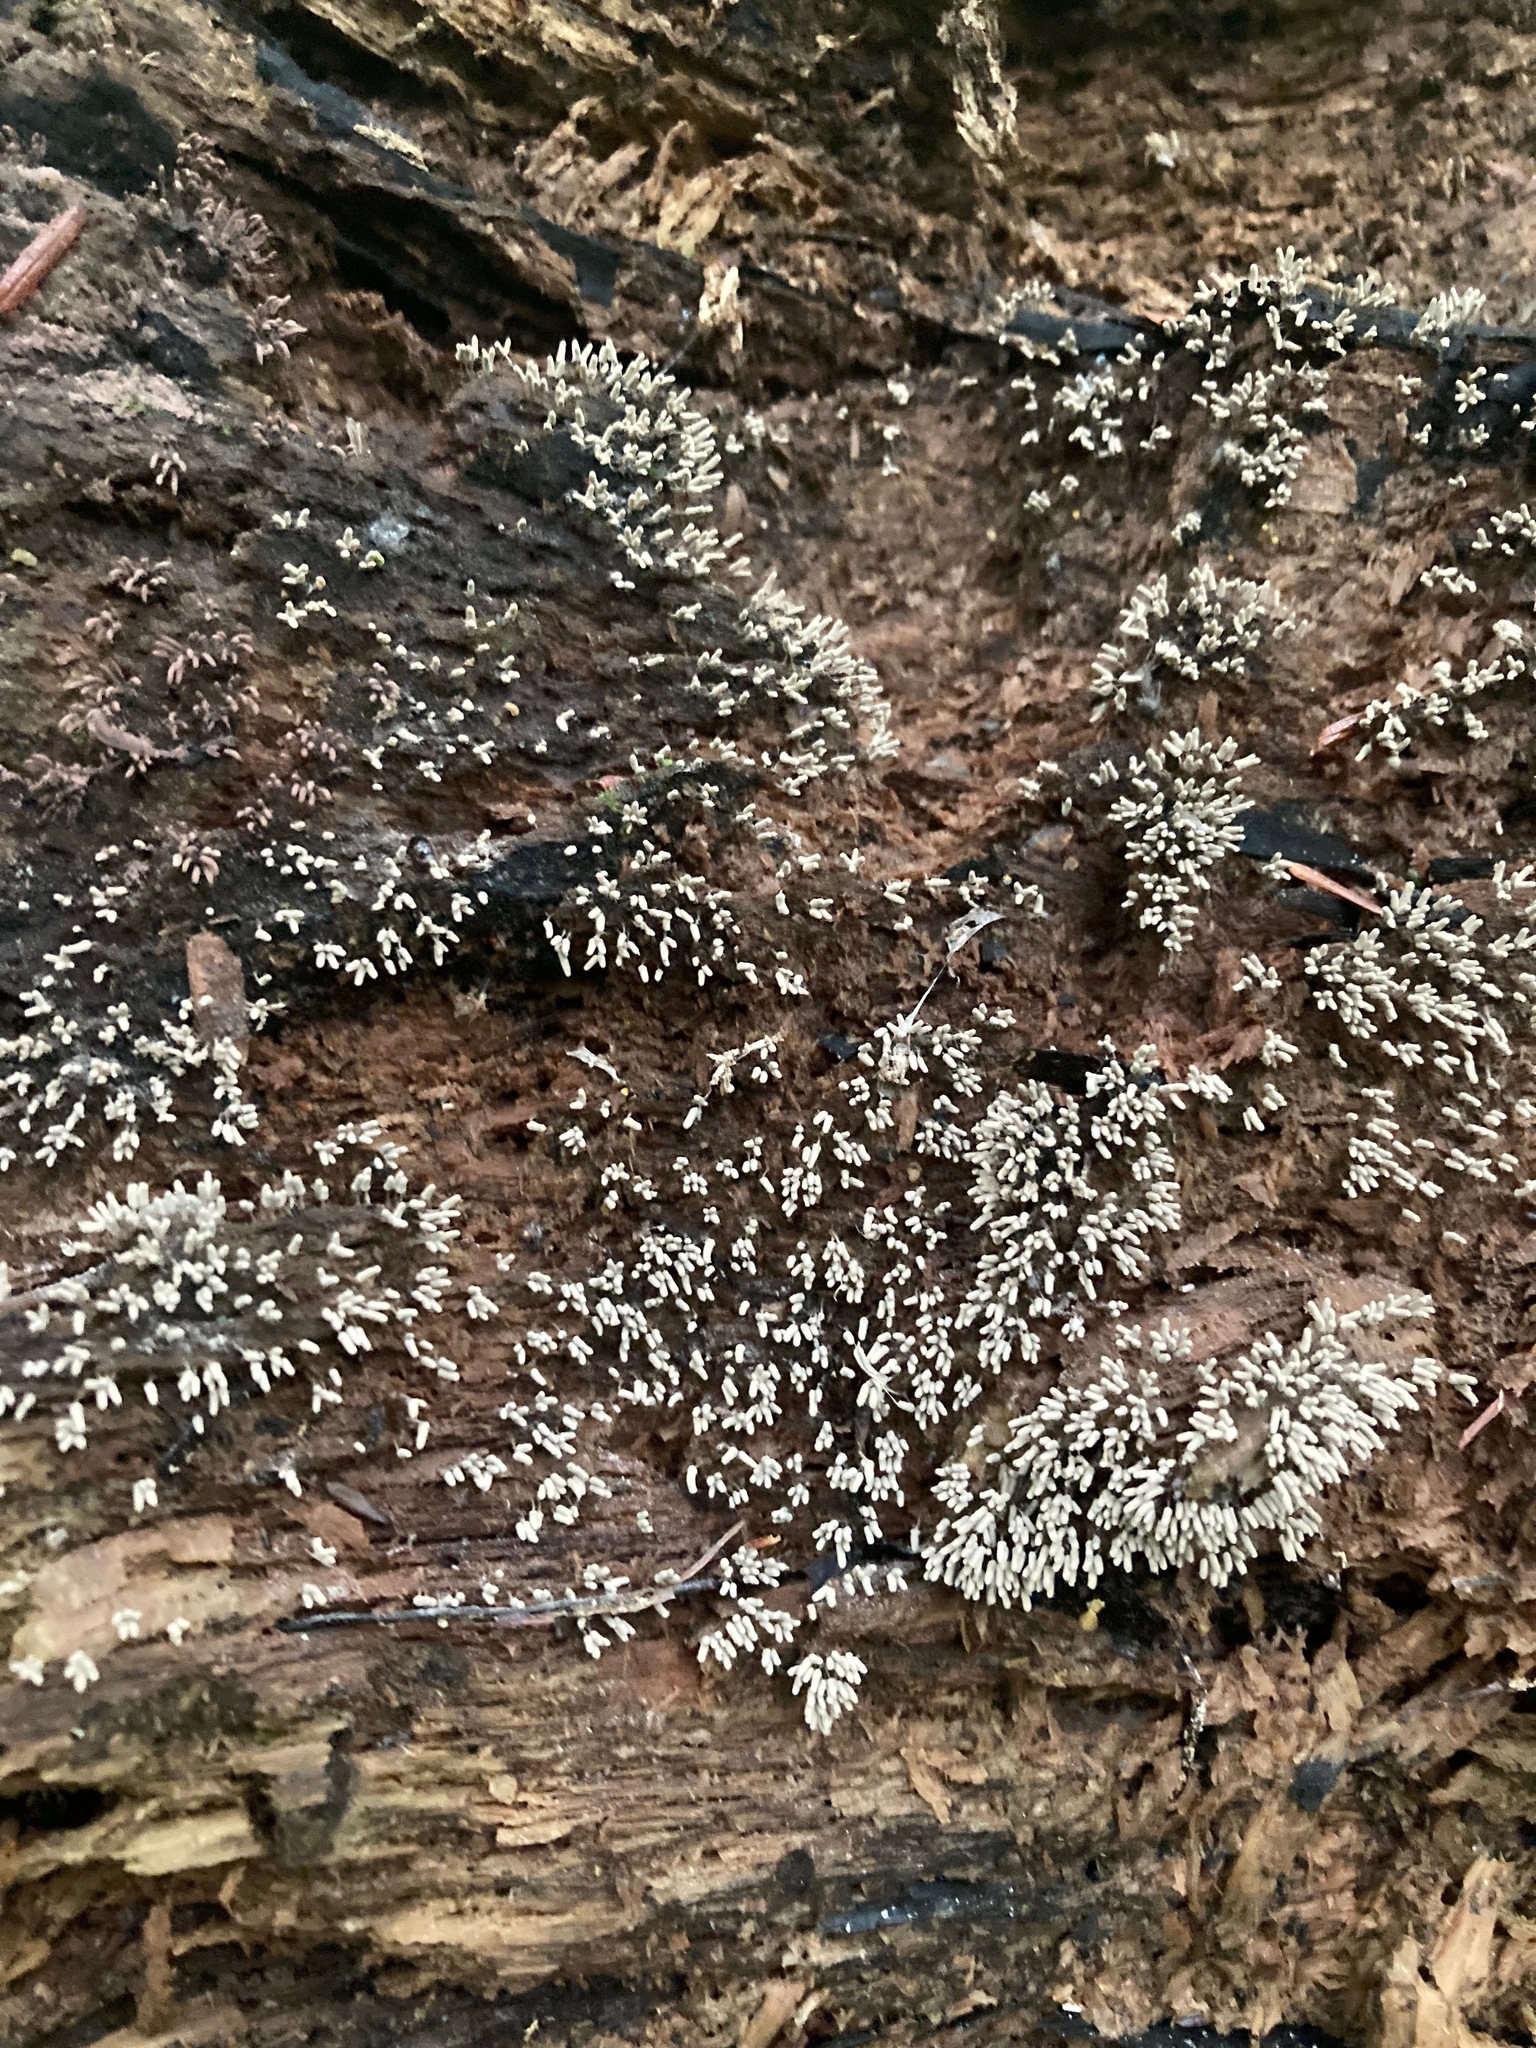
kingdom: Protozoa
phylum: Mycetozoa
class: Myxomycetes
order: Trichiales
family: Arcyriaceae
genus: Arcyria
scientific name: Arcyria cinerea
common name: White carnival candy slime mold
